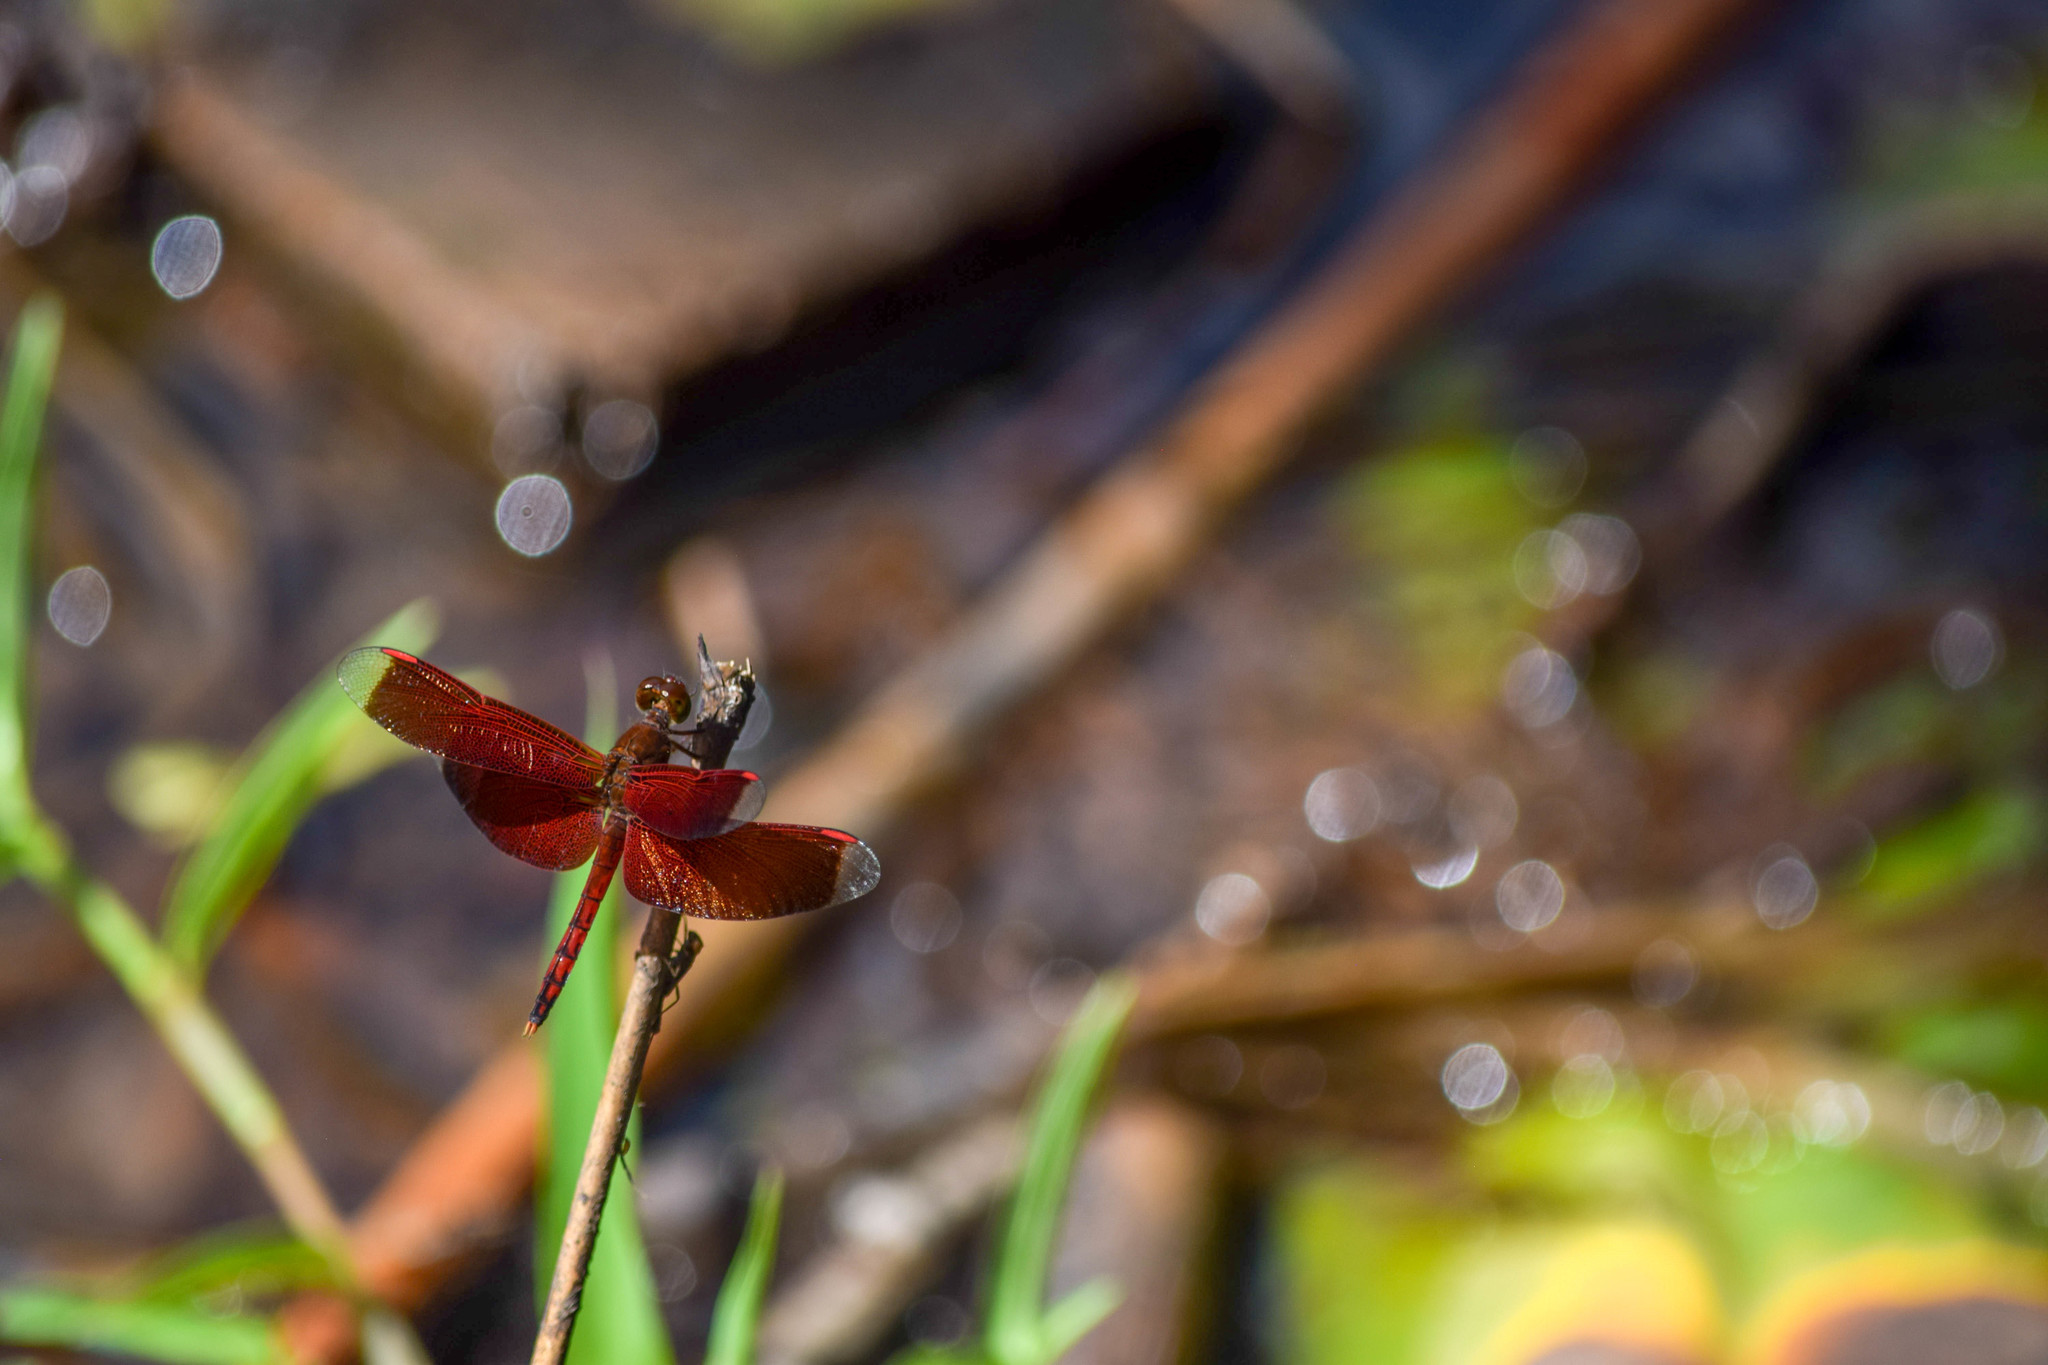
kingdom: Animalia
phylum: Arthropoda
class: Insecta
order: Odonata
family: Libellulidae
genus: Neurothemis
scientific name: Neurothemis terminata
